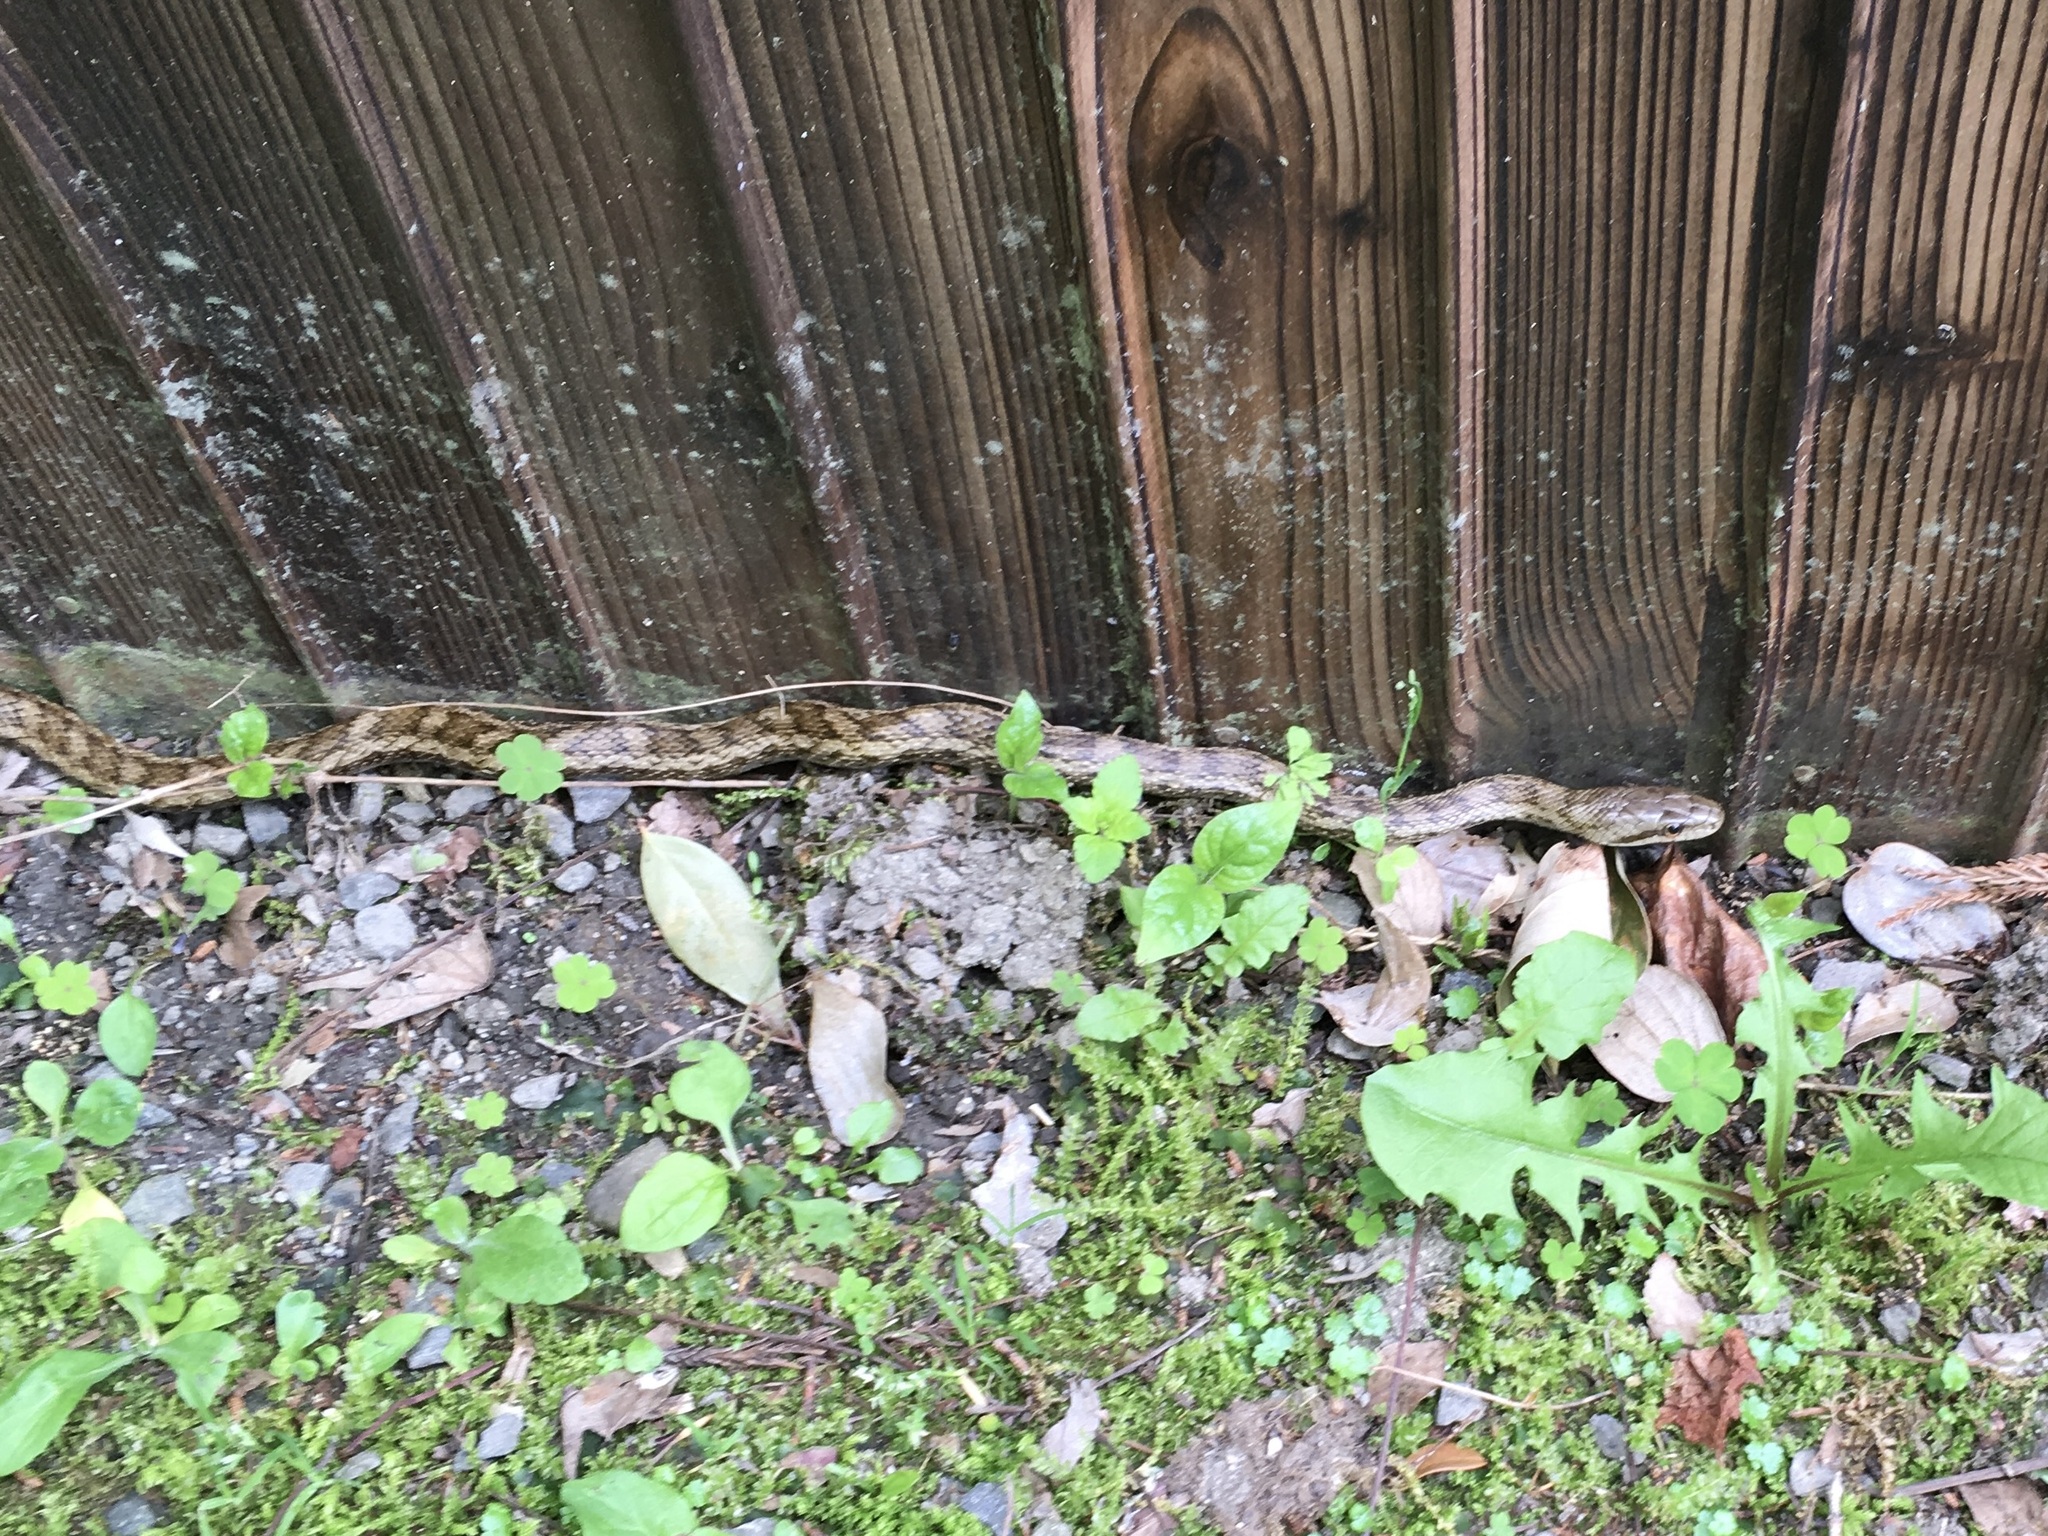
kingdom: Animalia
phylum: Chordata
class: Squamata
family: Colubridae
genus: Elaphe
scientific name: Elaphe climacophora
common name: Japanese ratsnake
